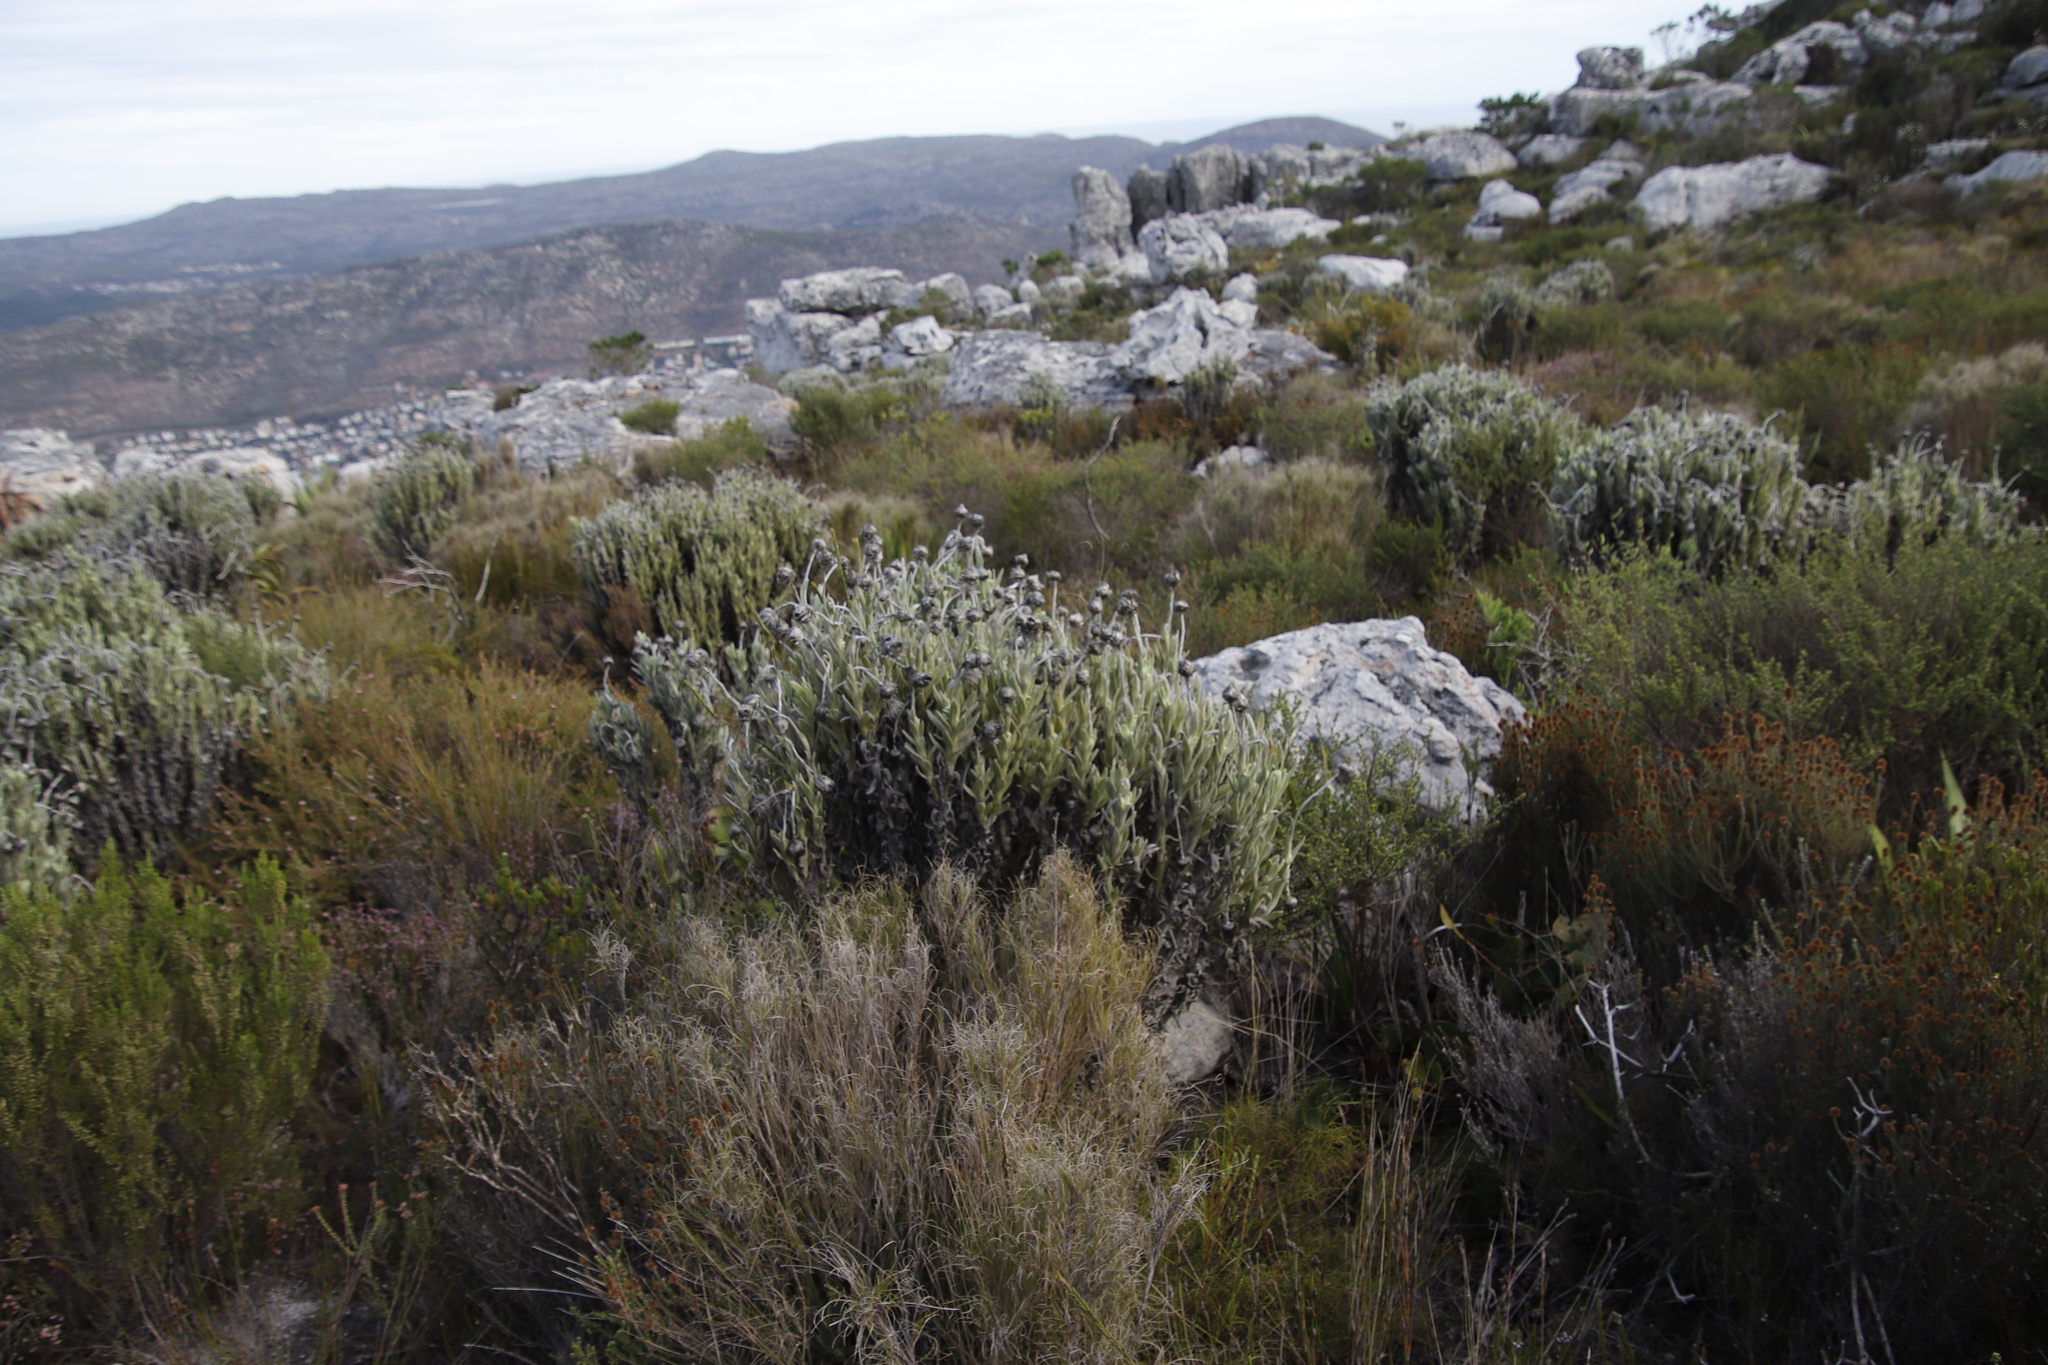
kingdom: Plantae
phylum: Tracheophyta
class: Magnoliopsida
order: Asterales
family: Asteraceae
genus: Syncarpha
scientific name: Syncarpha vestita
